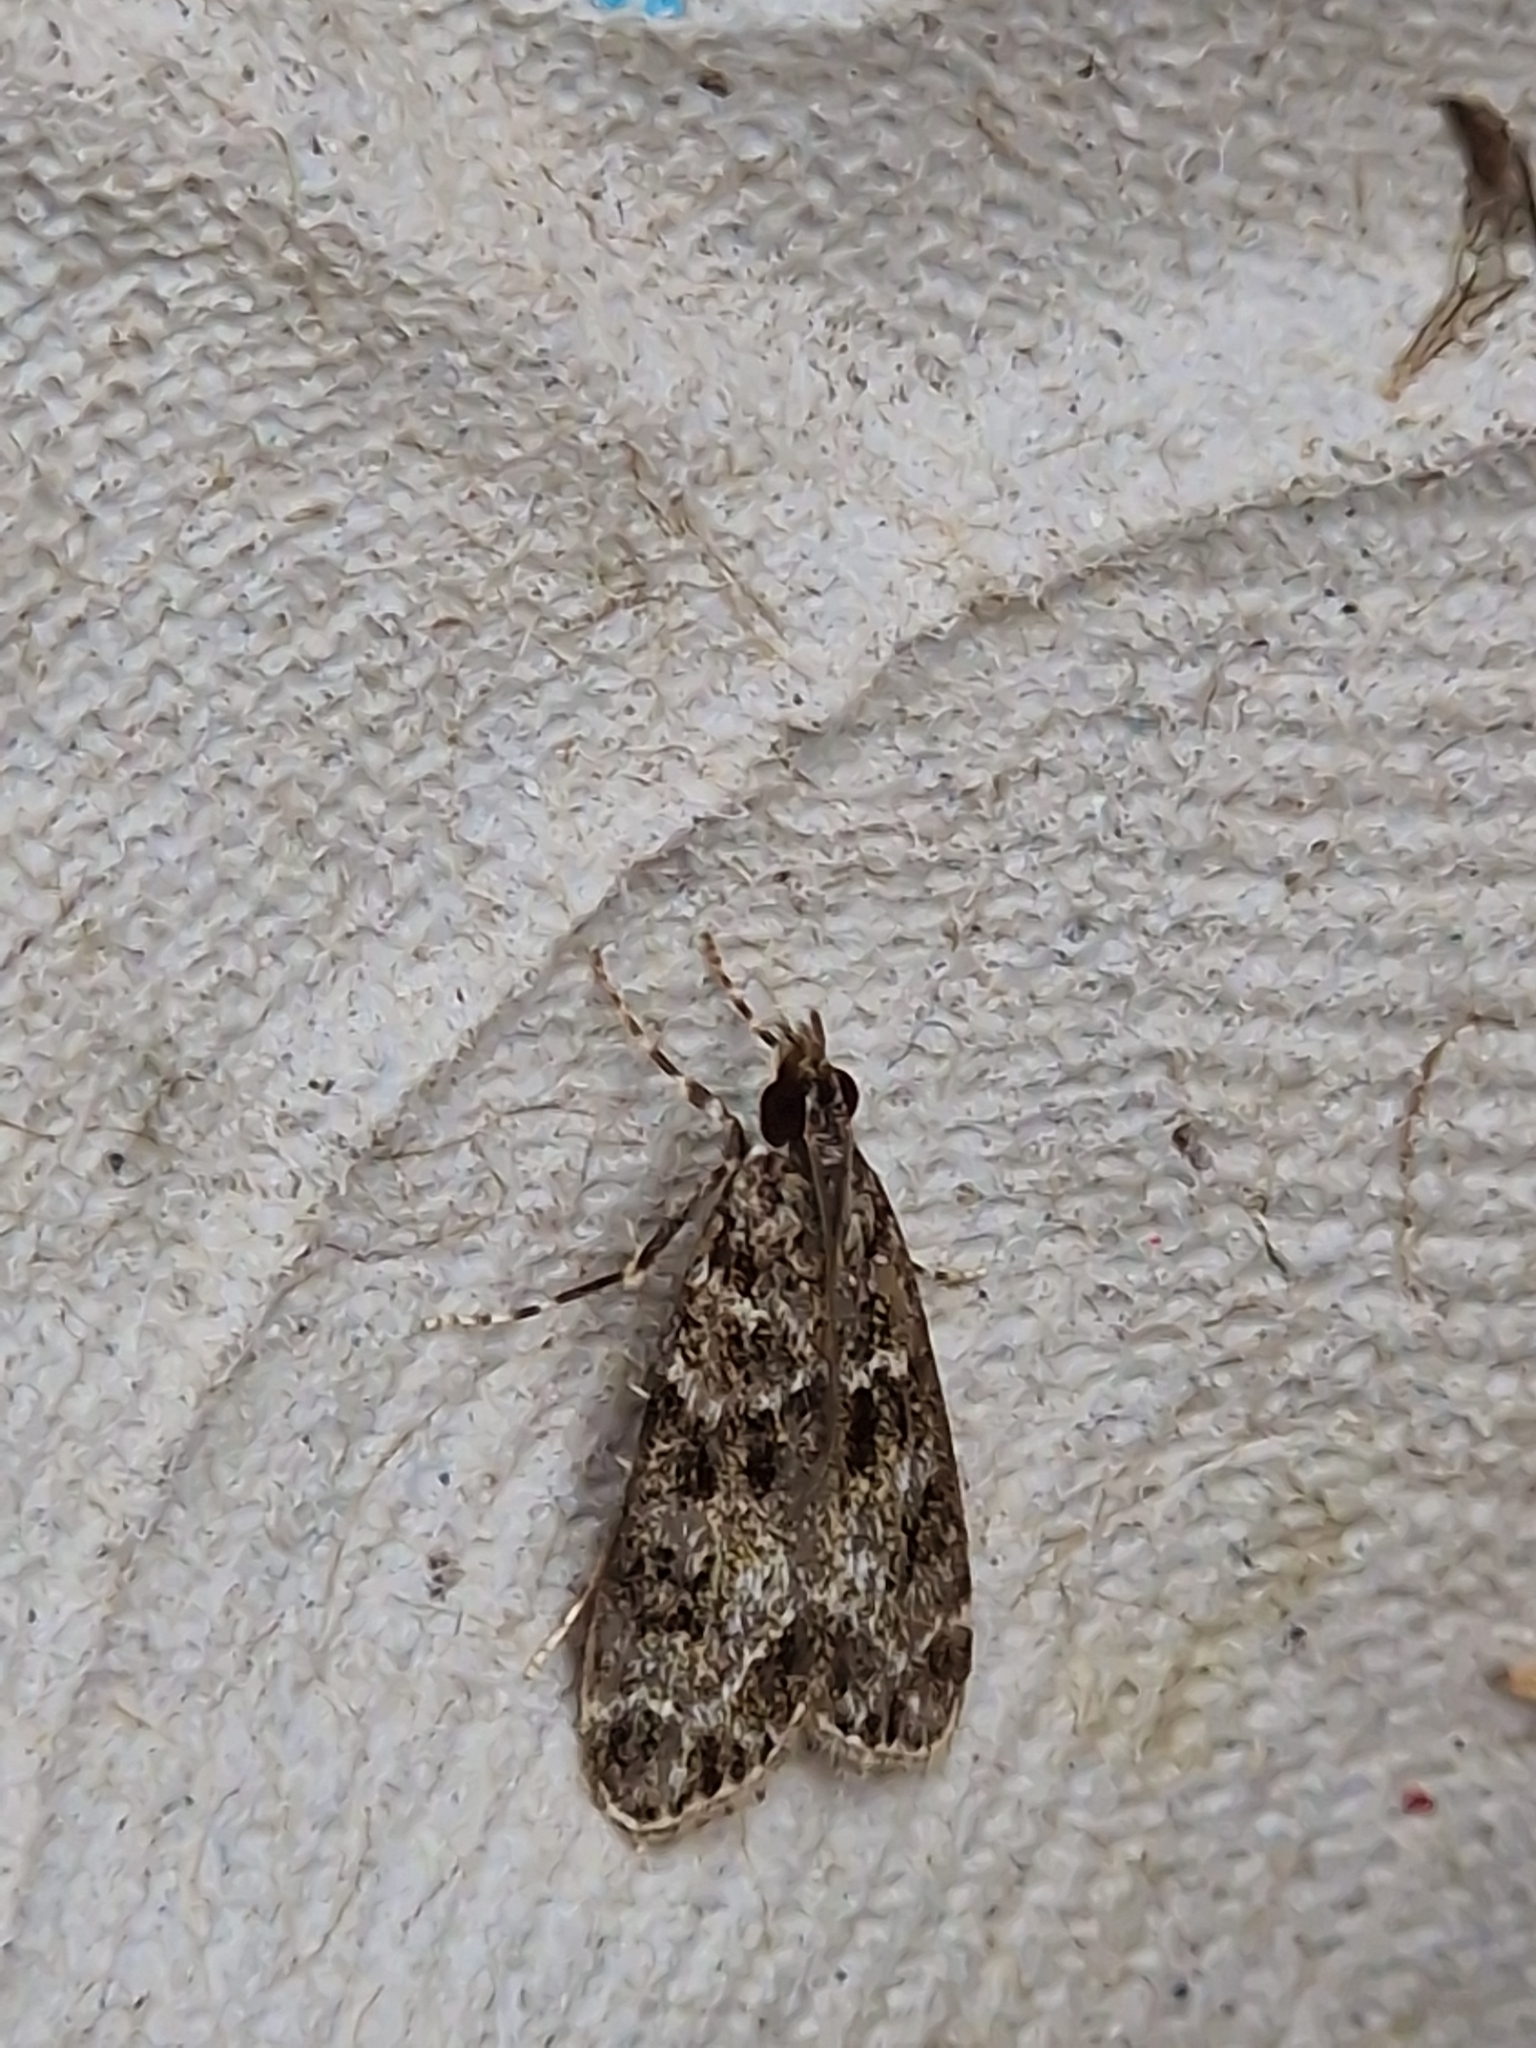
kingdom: Animalia
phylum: Arthropoda
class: Insecta
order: Lepidoptera
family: Crambidae
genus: Eudonia
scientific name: Eudonia mercurella
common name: Small grey
